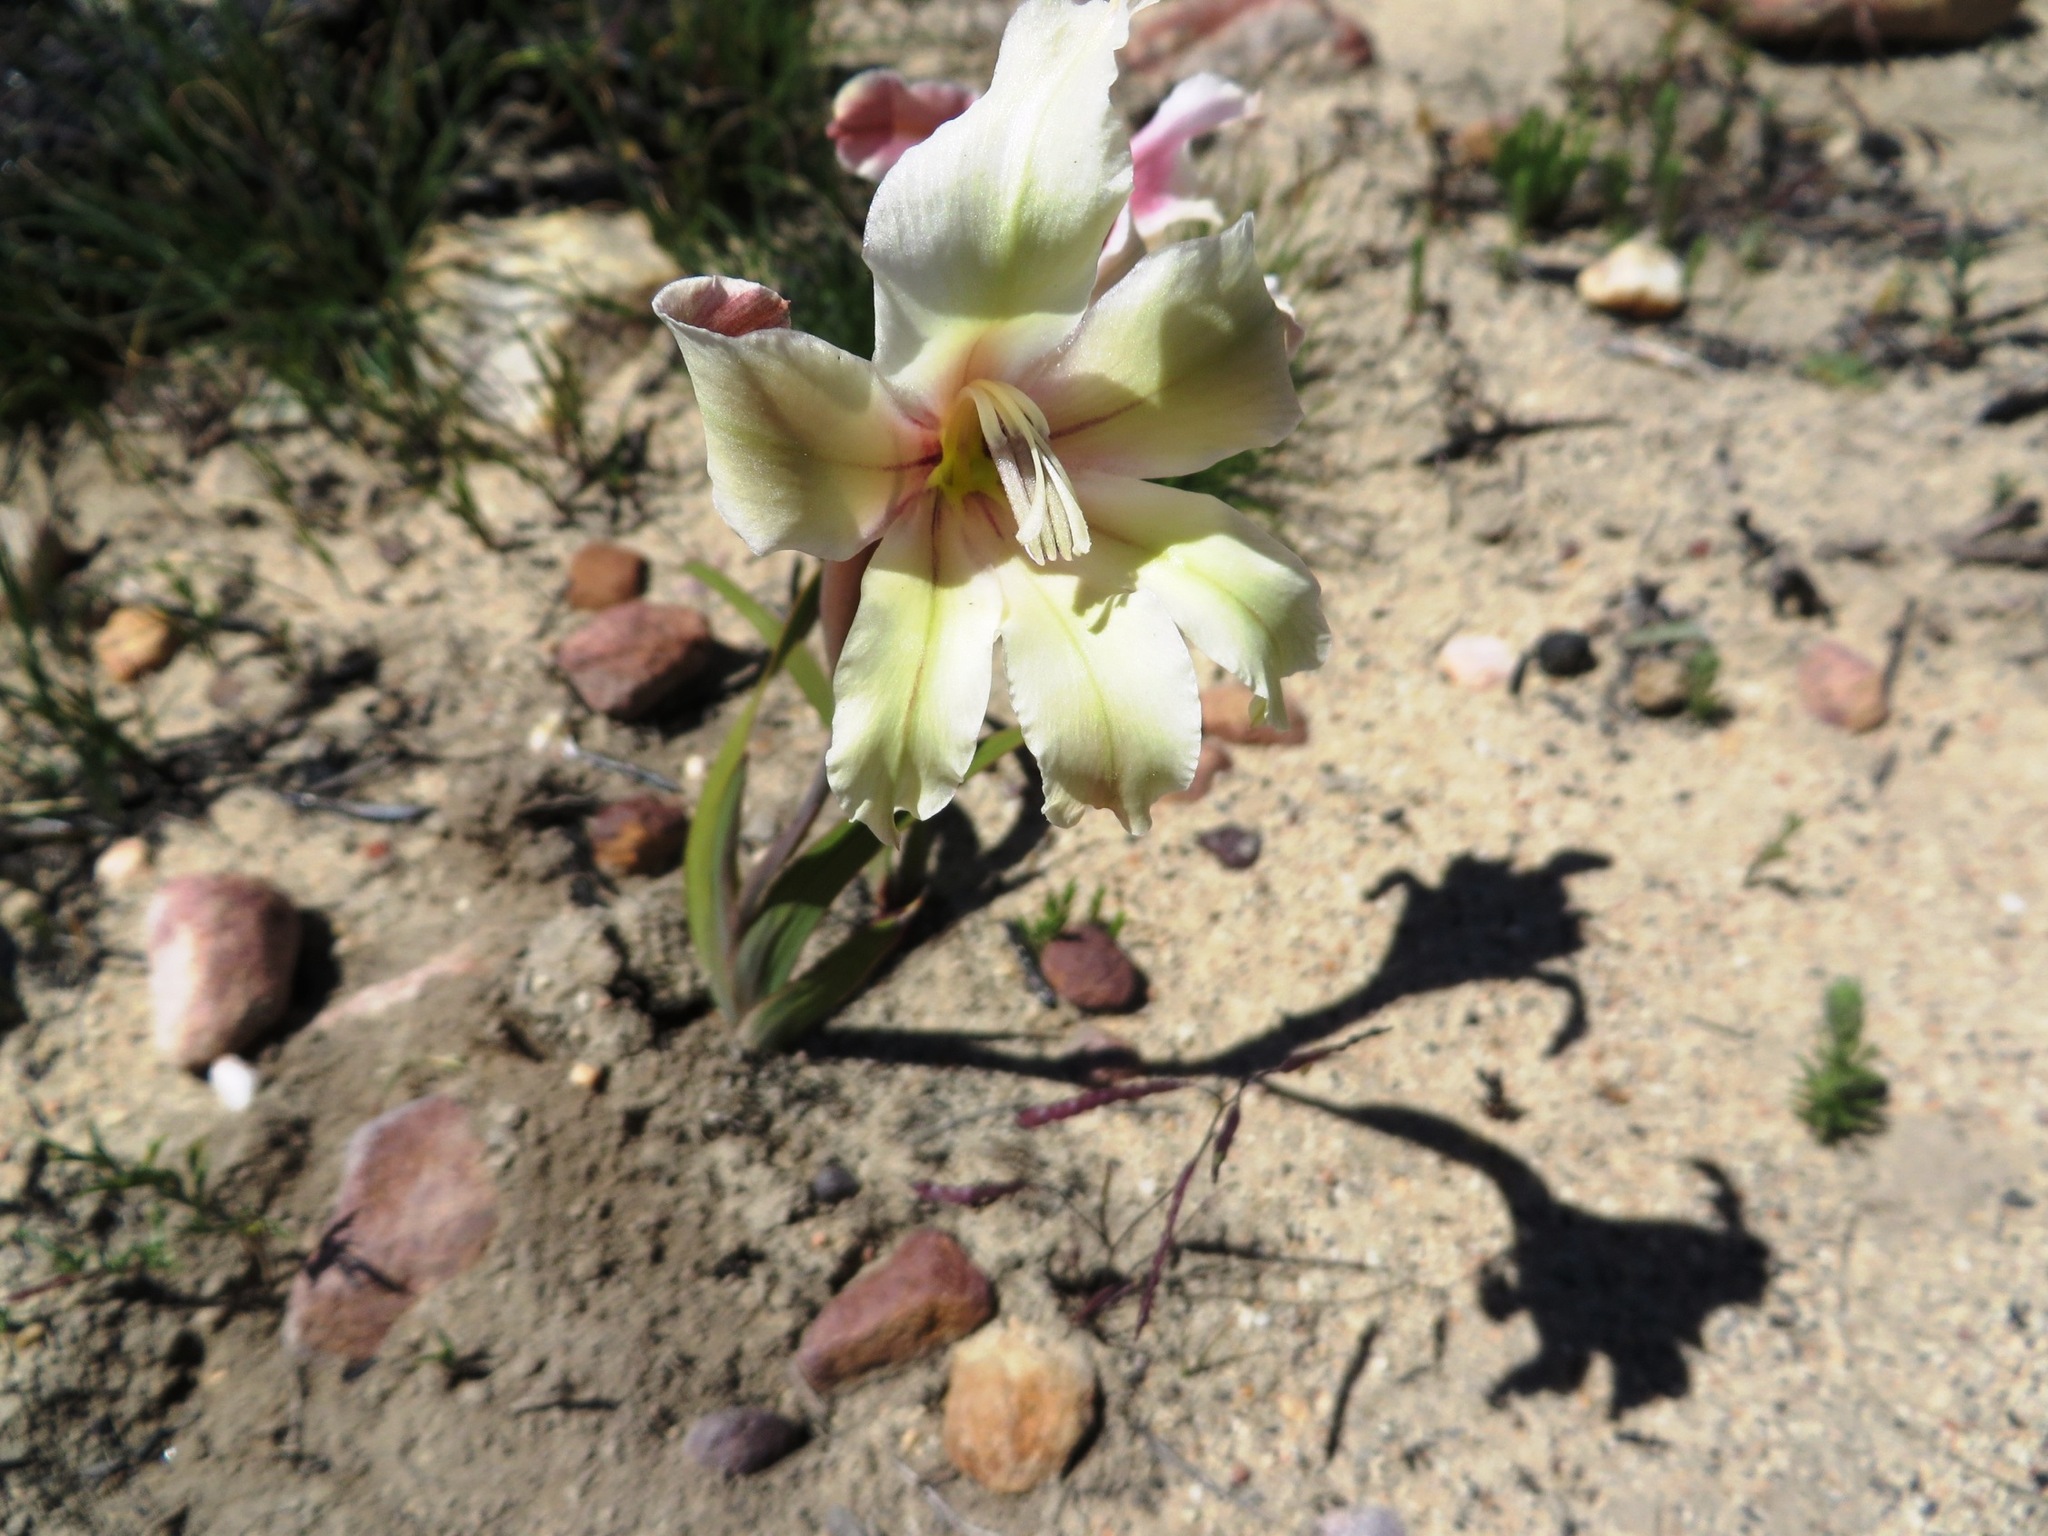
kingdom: Plantae
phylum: Tracheophyta
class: Liliopsida
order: Asparagales
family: Iridaceae
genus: Gladiolus
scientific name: Gladiolus grandiflorus
